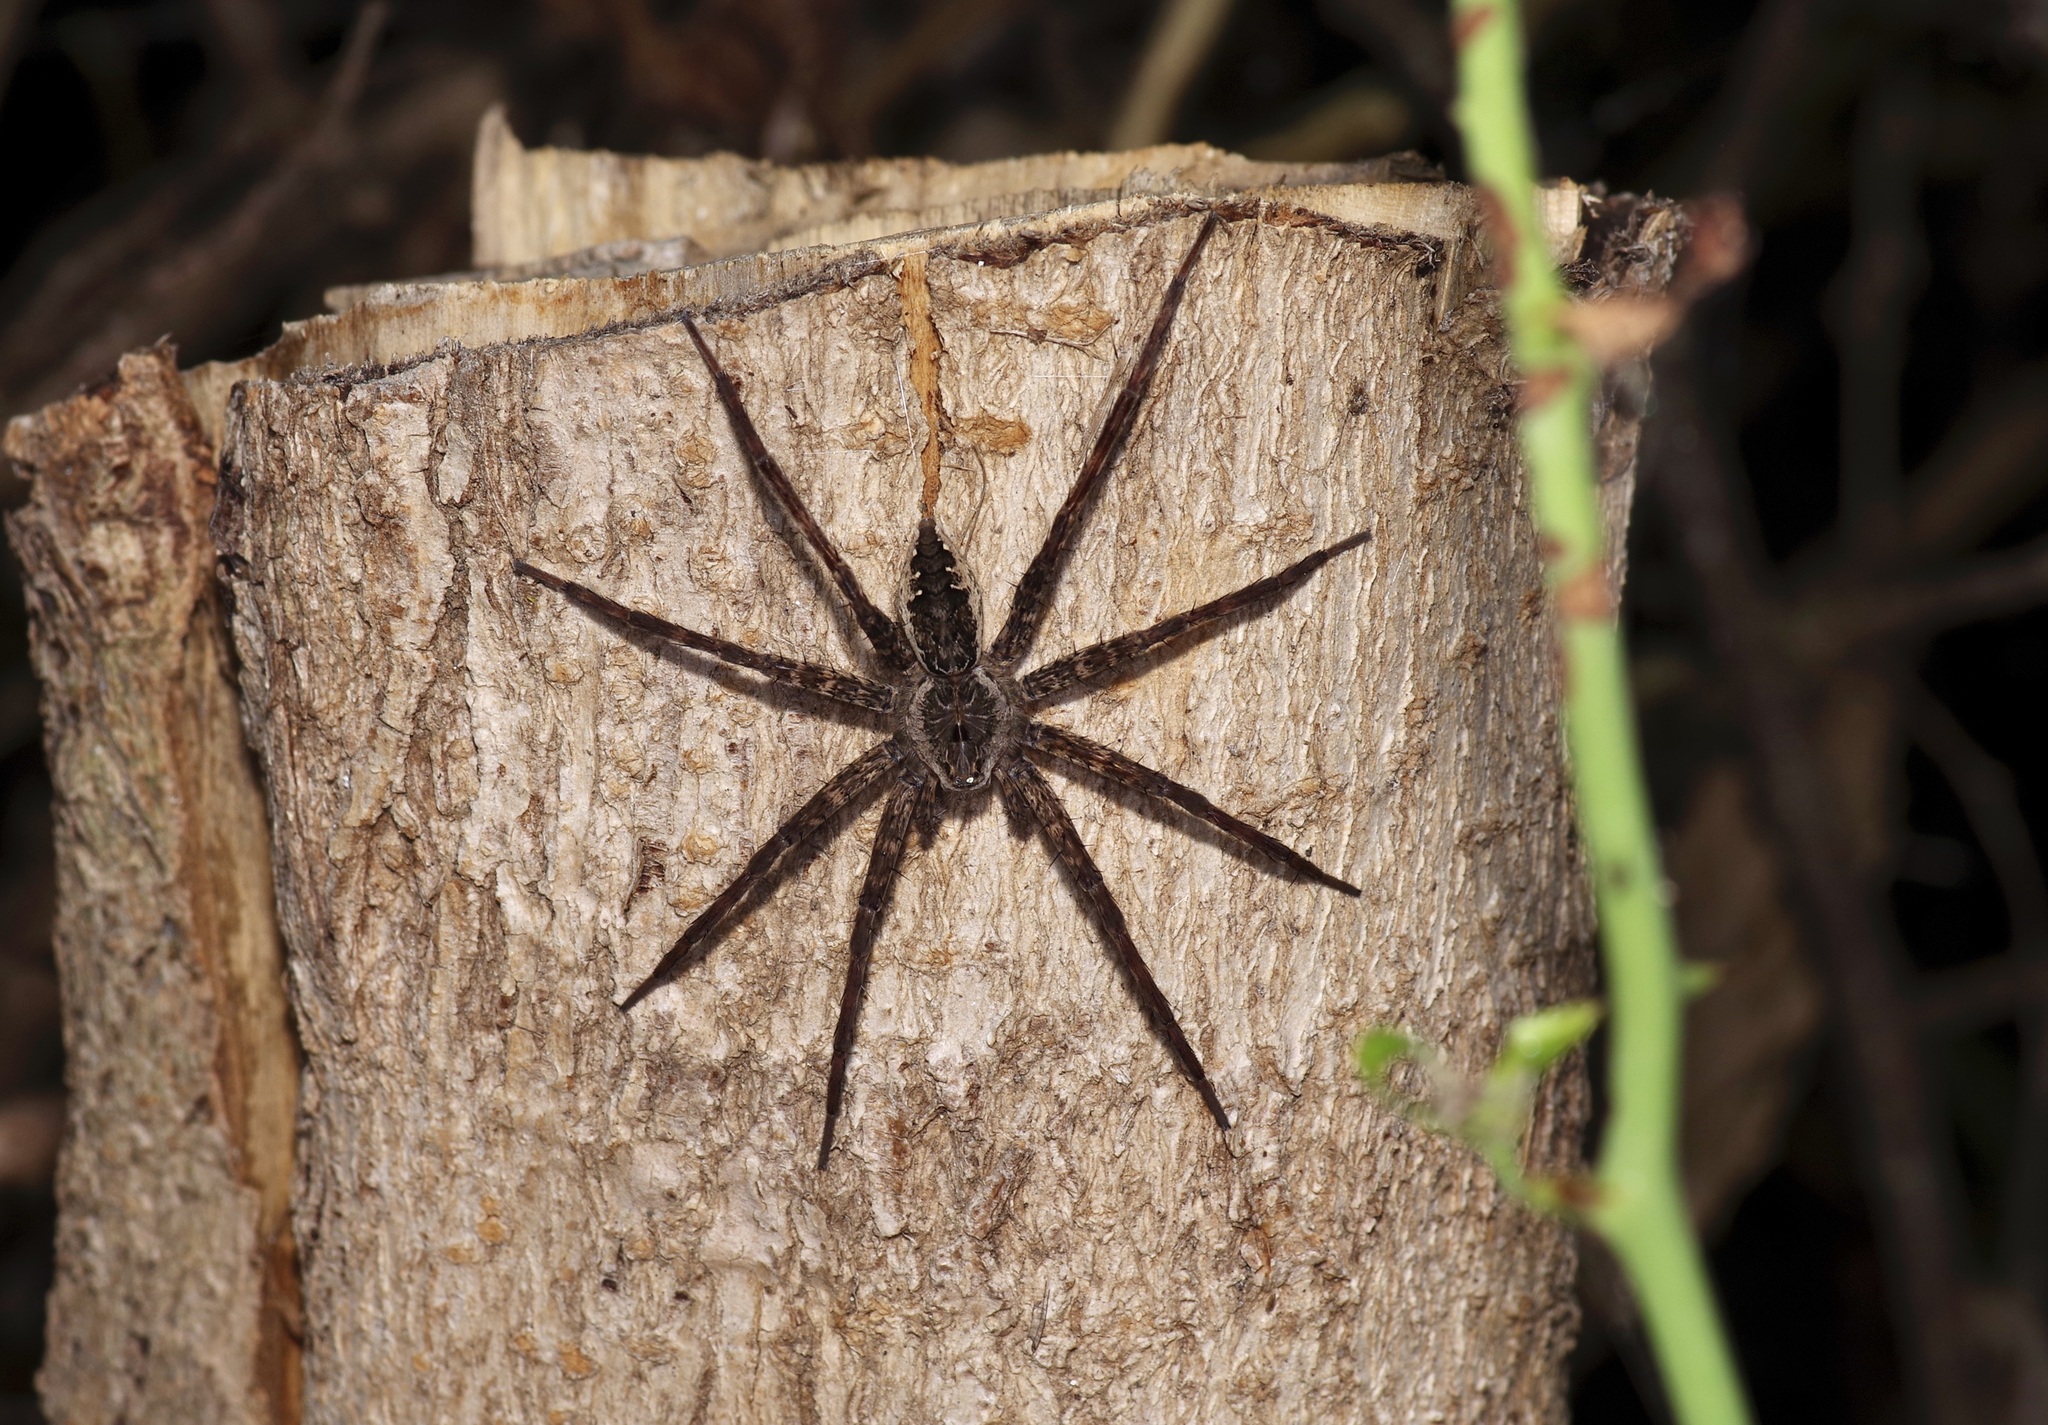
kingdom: Animalia
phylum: Arthropoda
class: Arachnida
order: Araneae
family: Pisauridae
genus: Dolomedes
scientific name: Dolomedes vittatus
